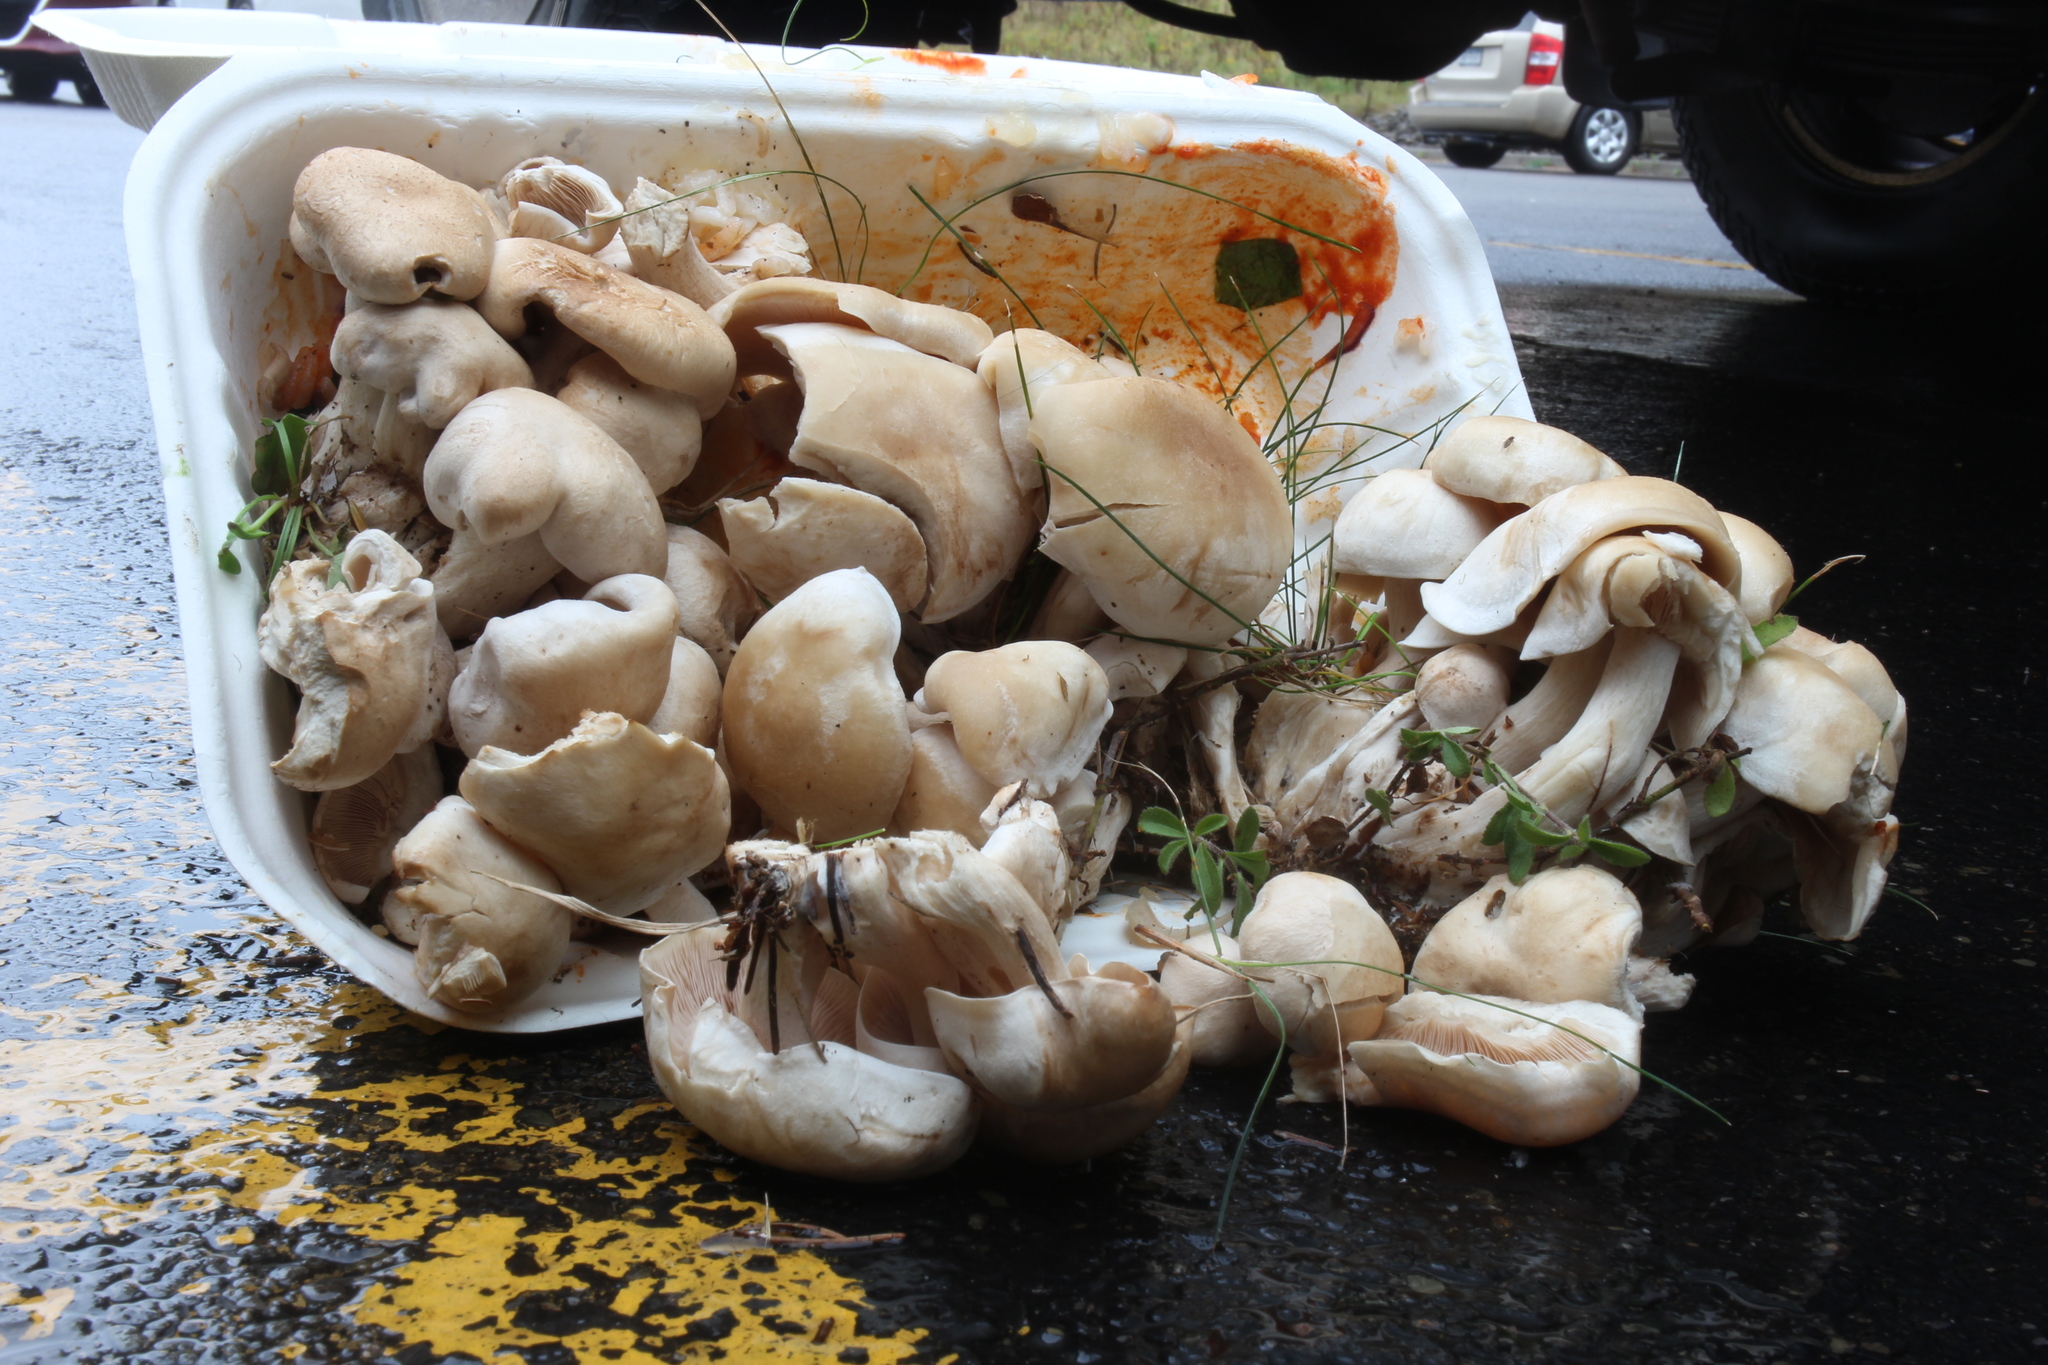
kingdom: Fungi
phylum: Basidiomycota
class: Agaricomycetes
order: Agaricales
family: Lyophyllaceae
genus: Lyophyllum
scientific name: Lyophyllum decastes
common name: Clustered domecap
